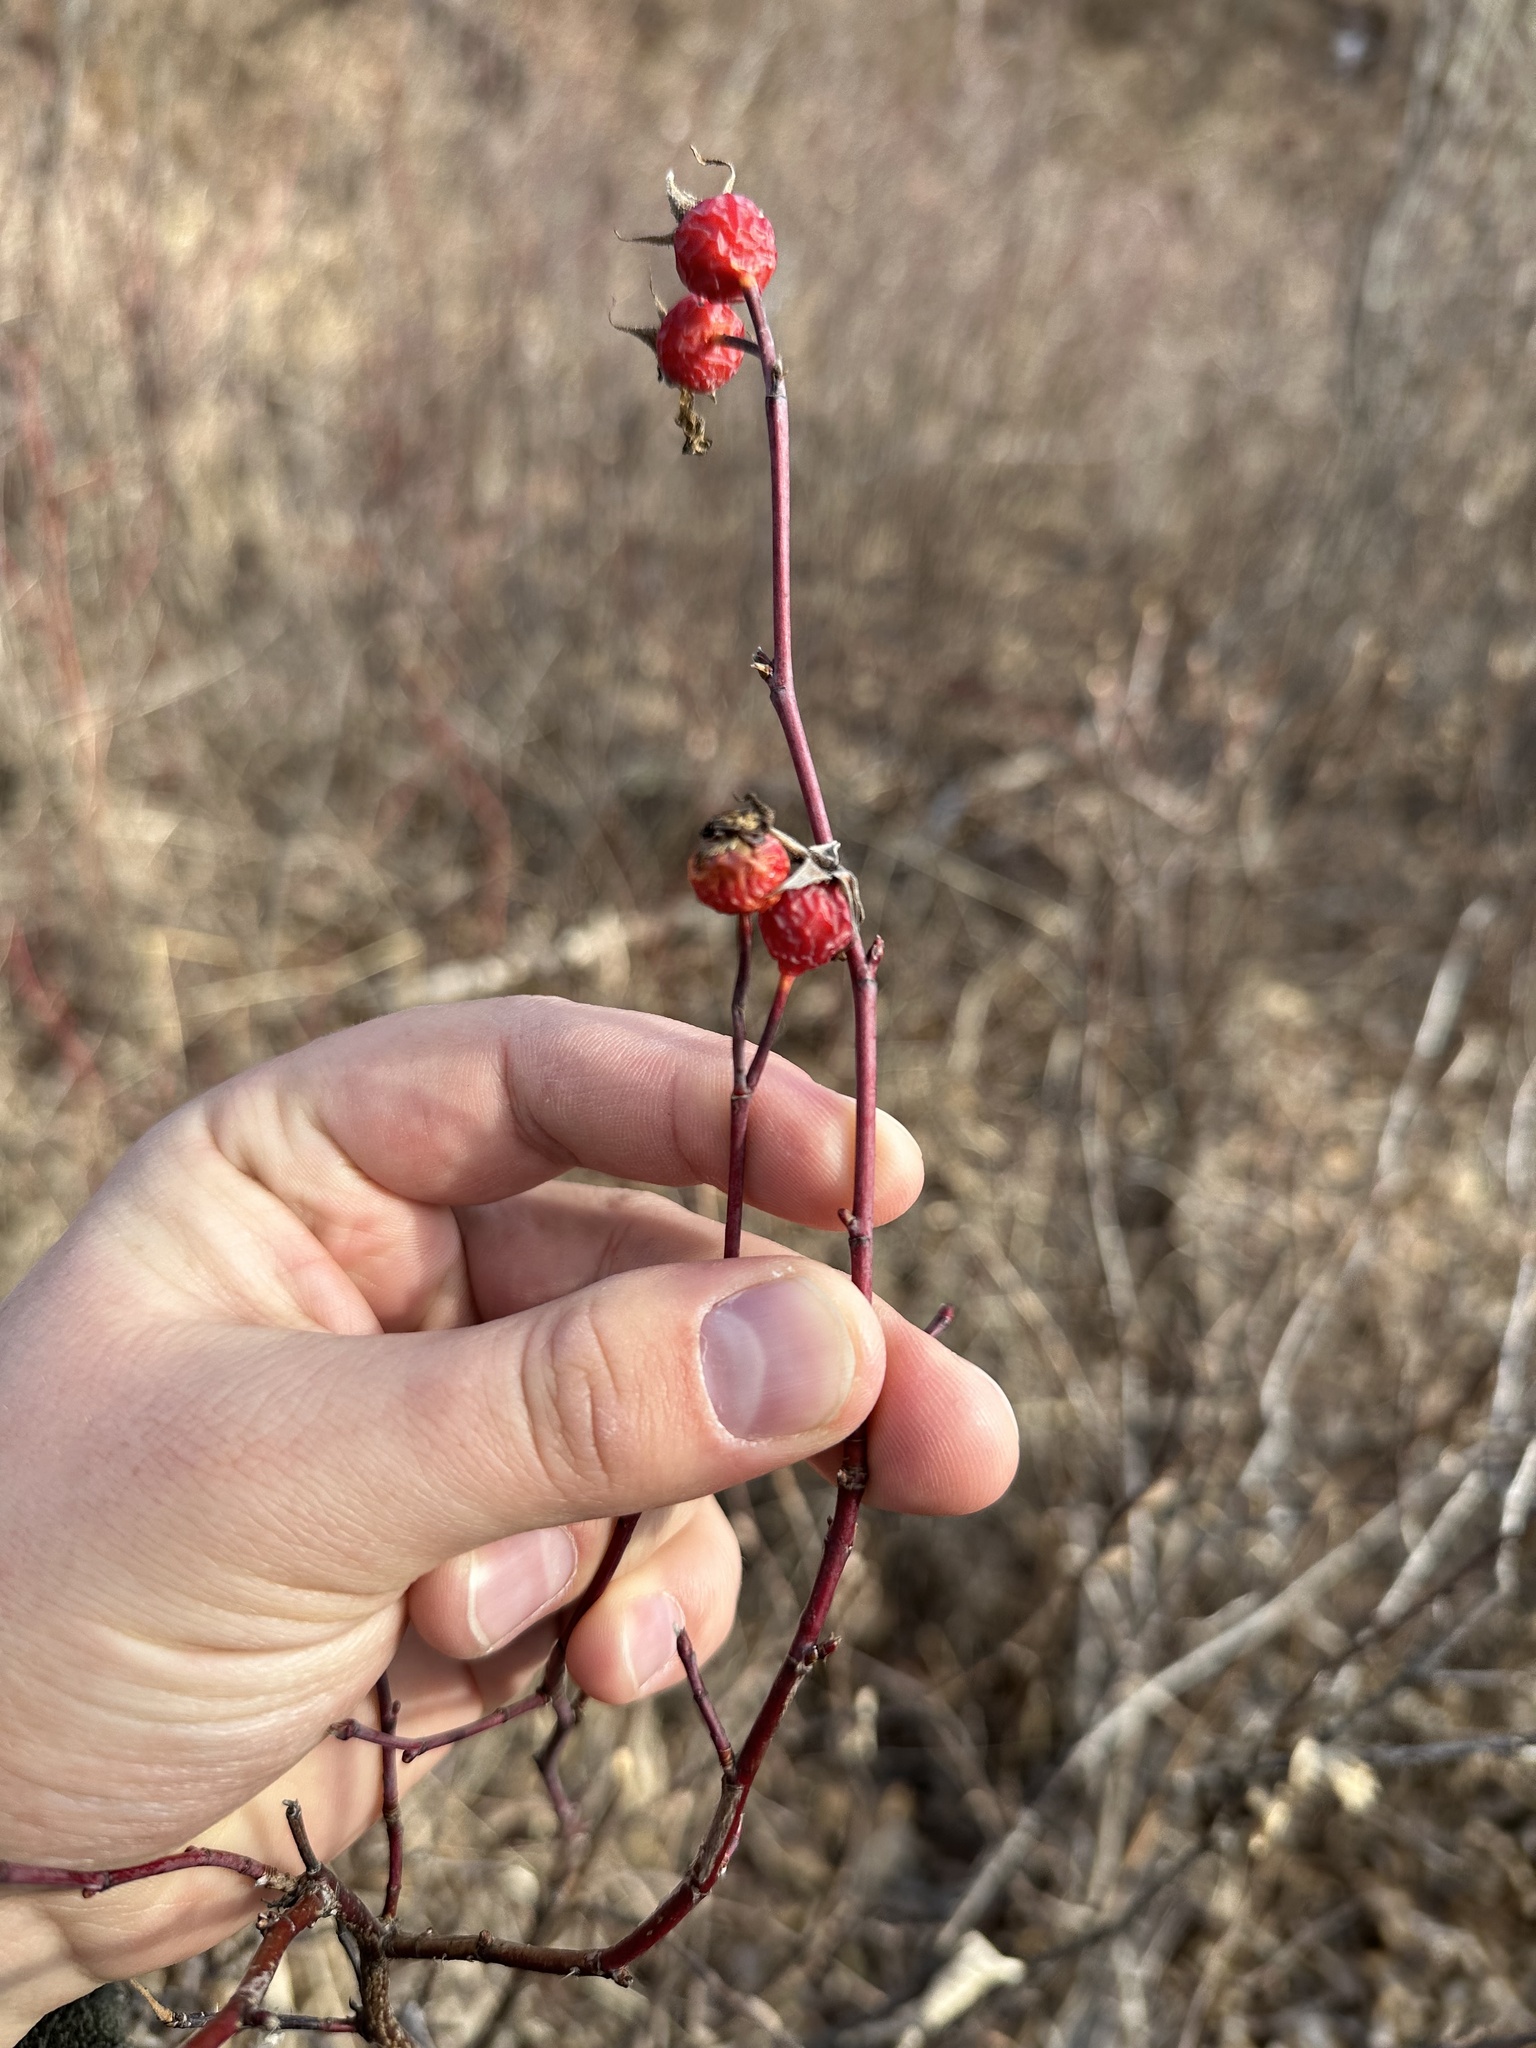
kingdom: Plantae
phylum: Tracheophyta
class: Magnoliopsida
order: Rosales
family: Rosaceae
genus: Rosa
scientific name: Rosa woodsii
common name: Woods's rose
